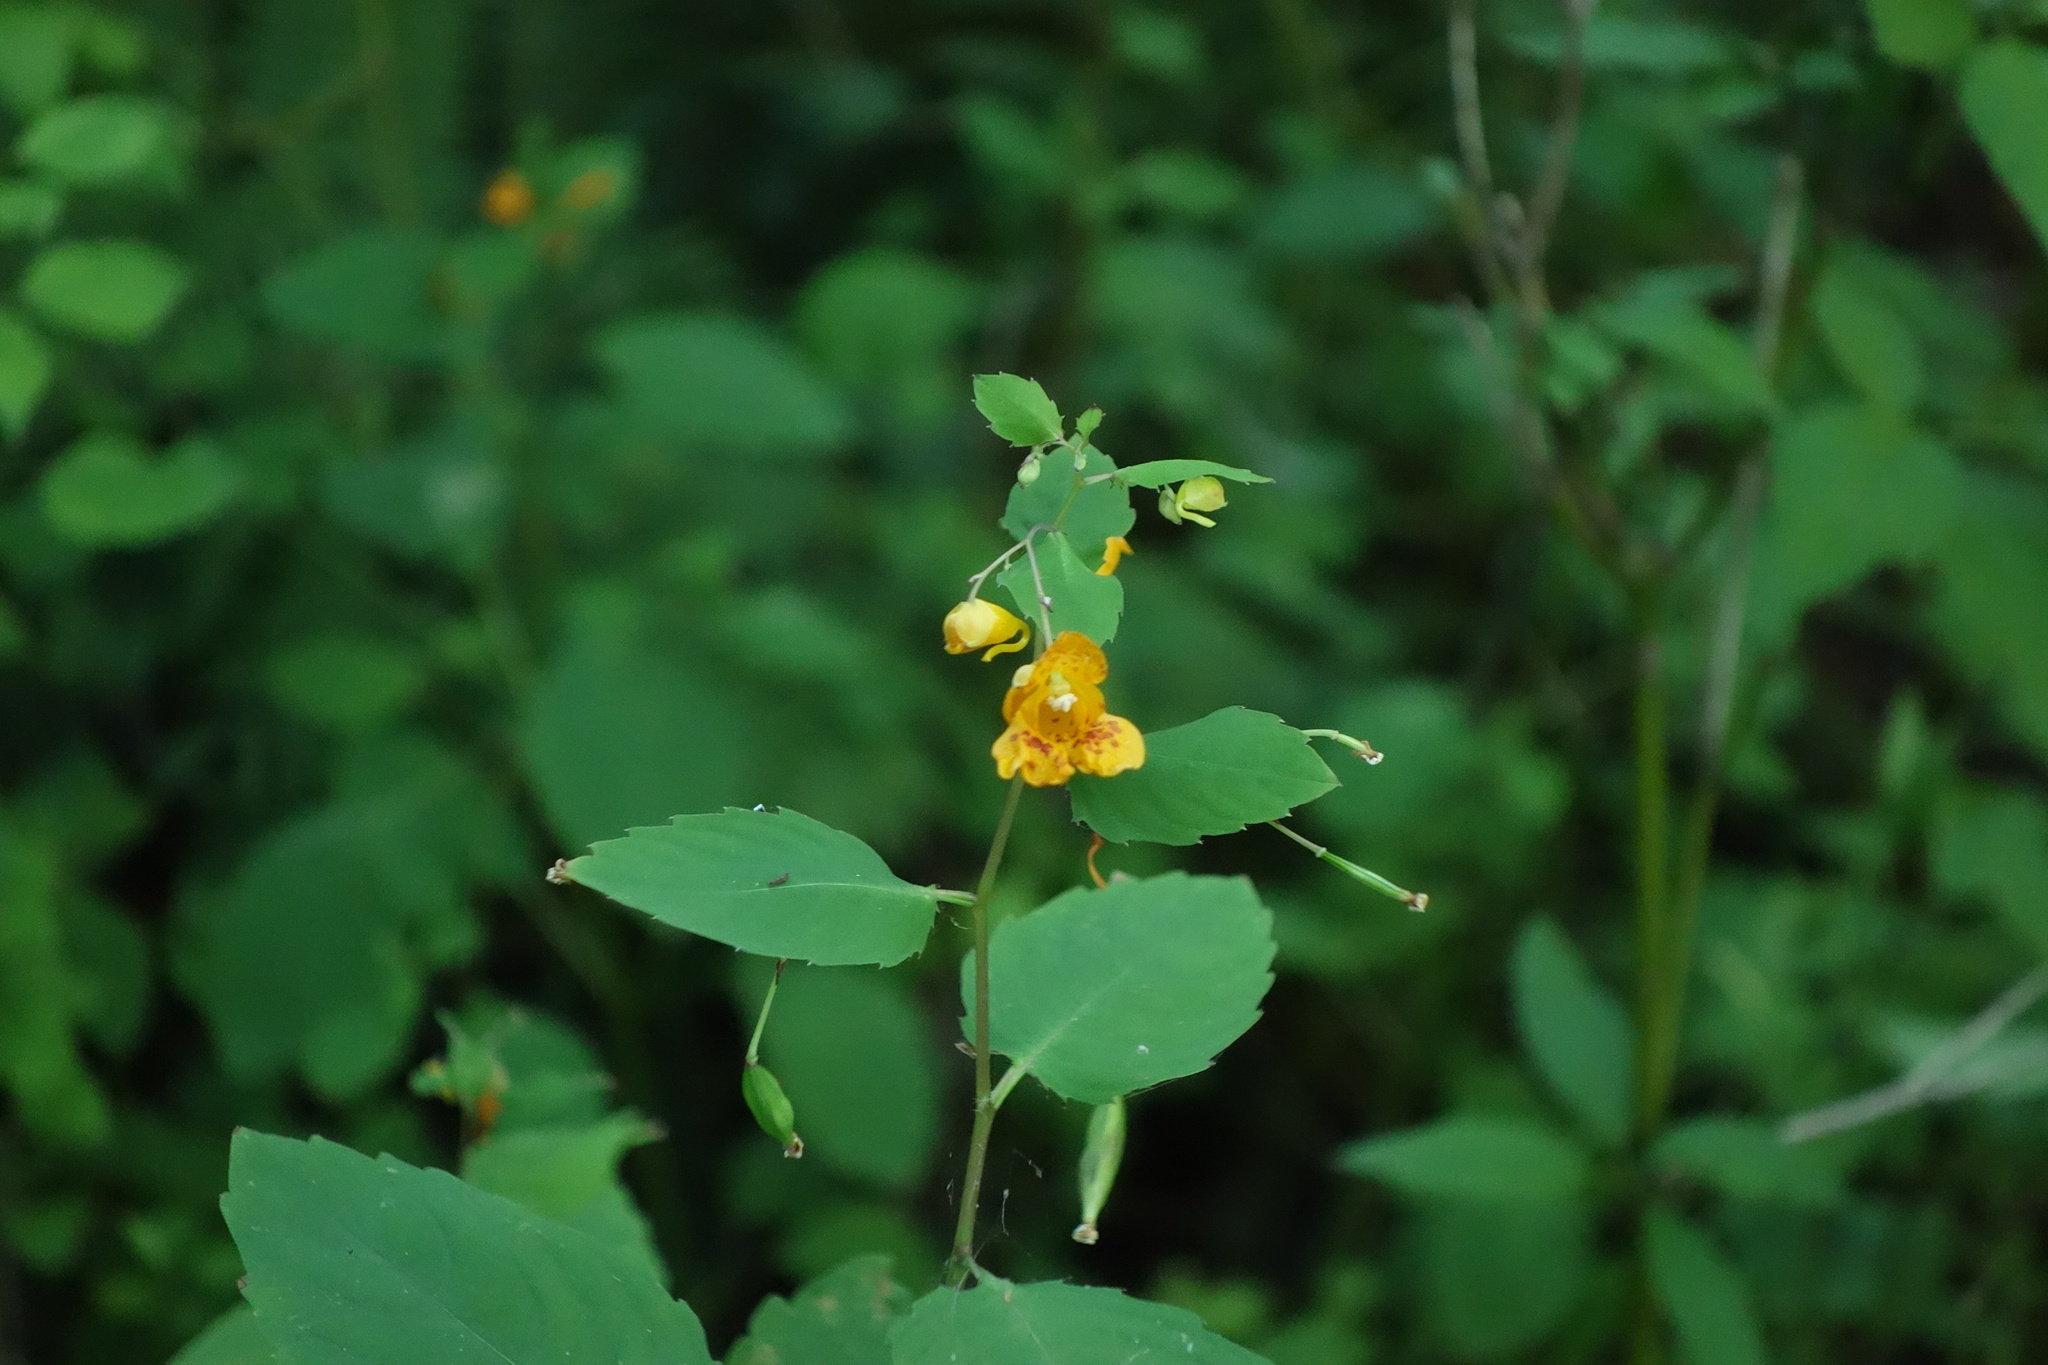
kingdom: Plantae
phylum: Tracheophyta
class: Magnoliopsida
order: Ericales
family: Balsaminaceae
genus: Impatiens
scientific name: Impatiens capensis
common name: Orange balsam
